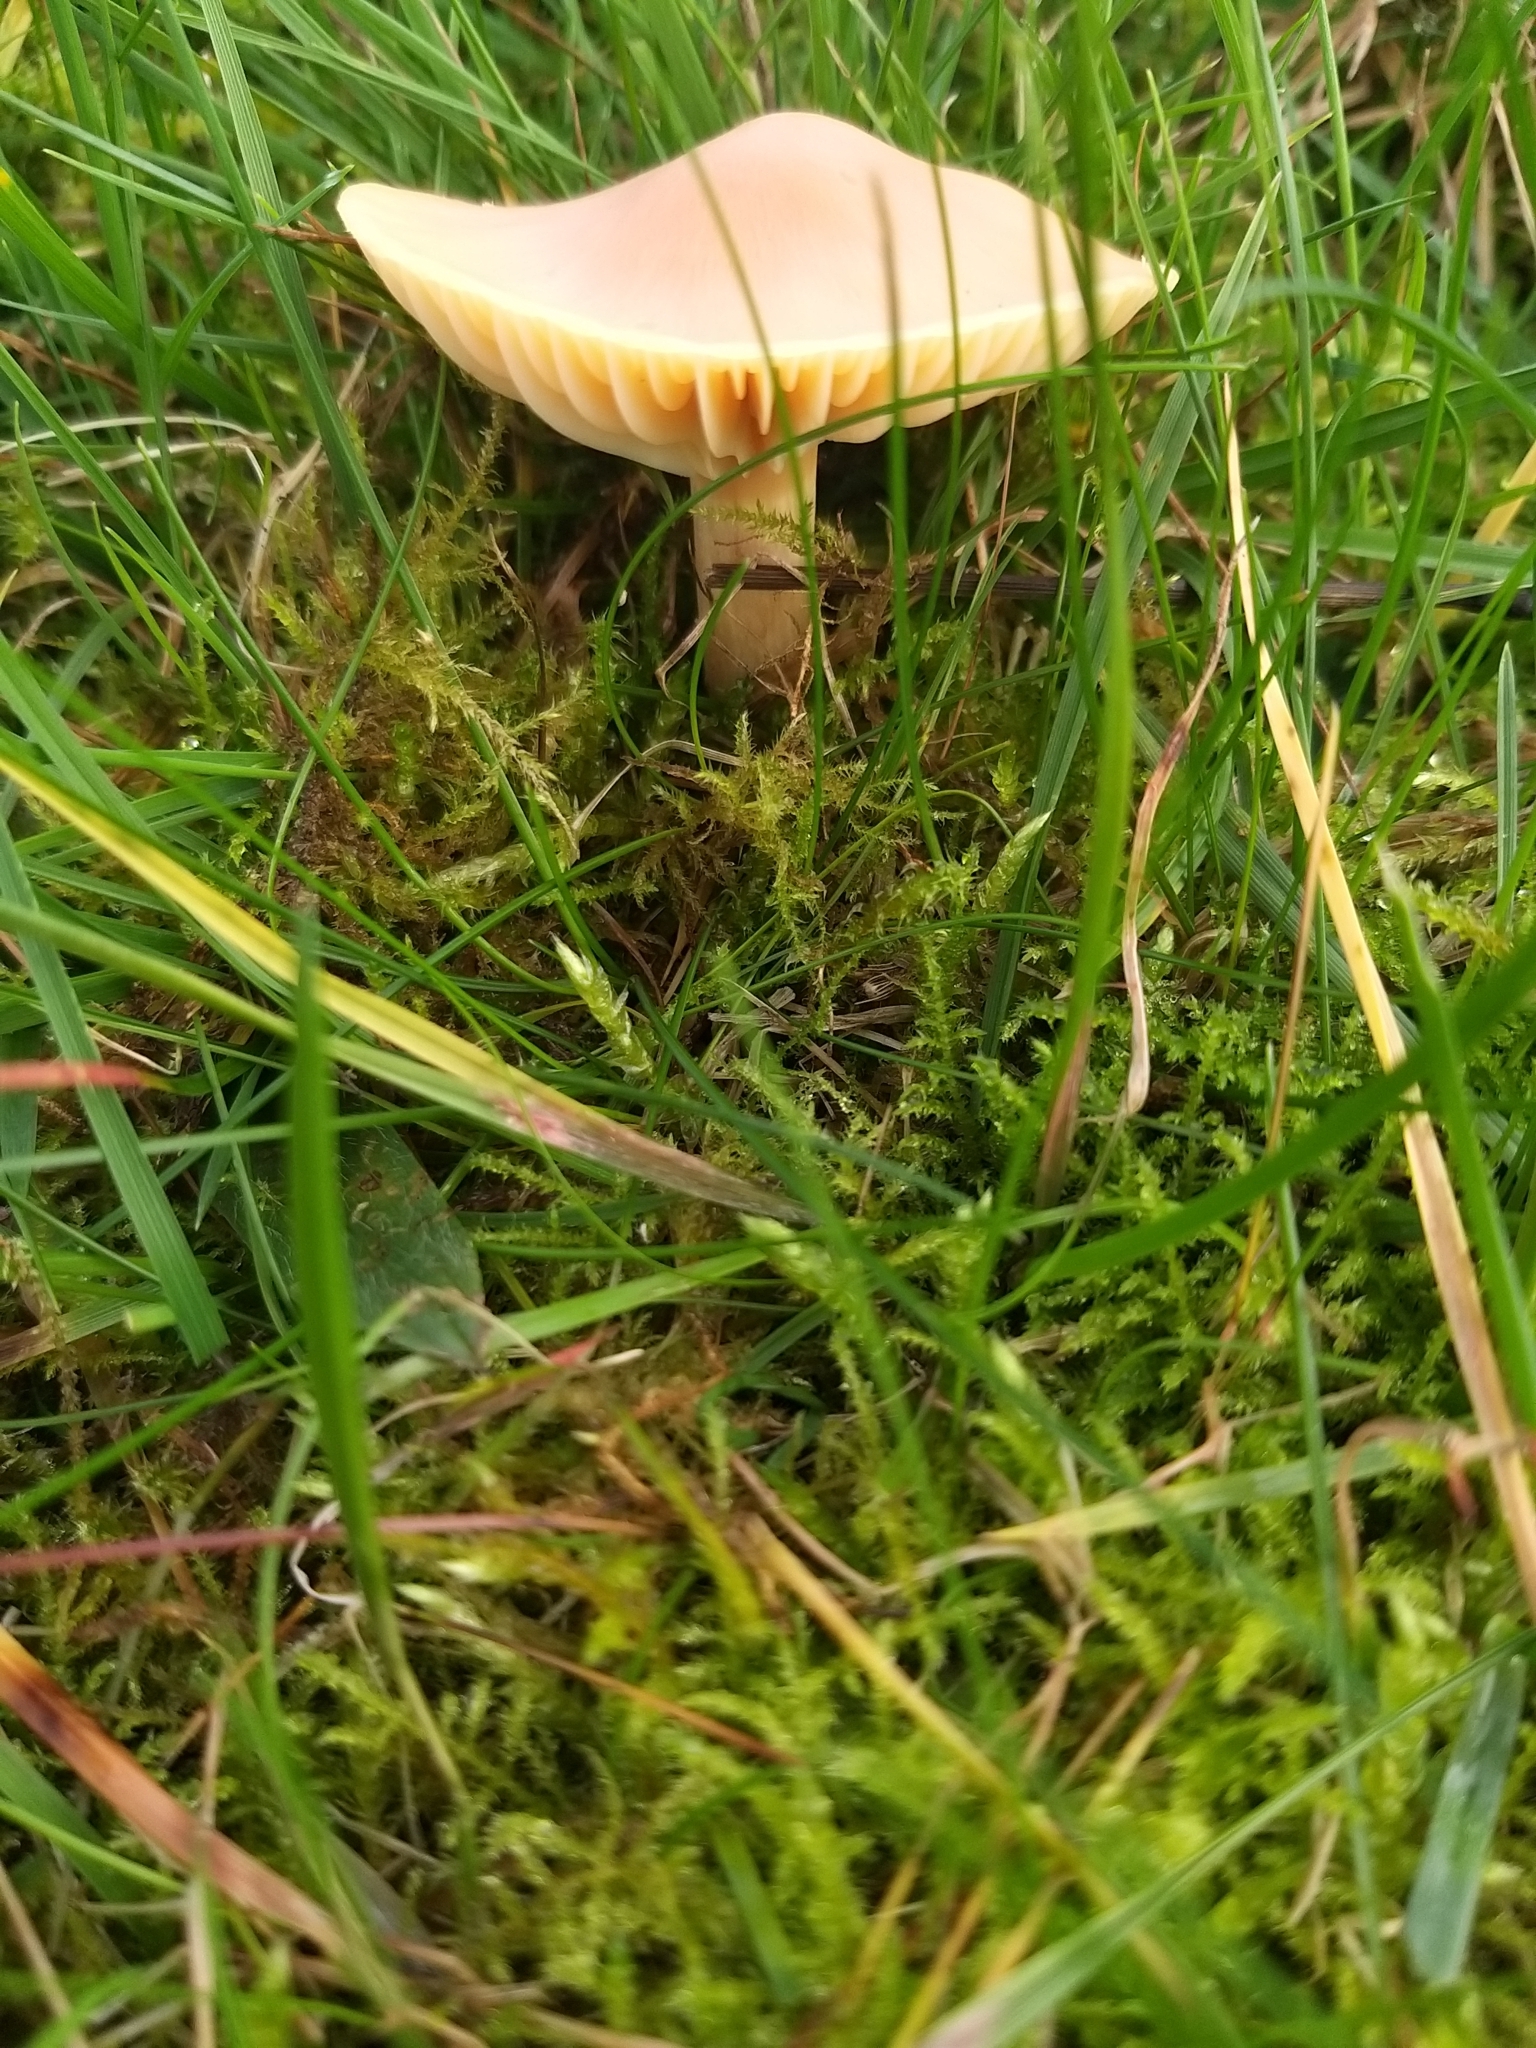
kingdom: Fungi
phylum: Basidiomycota
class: Agaricomycetes
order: Agaricales
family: Hygrophoraceae
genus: Cuphophyllus
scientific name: Cuphophyllus pratensis
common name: Meadow waxcap
